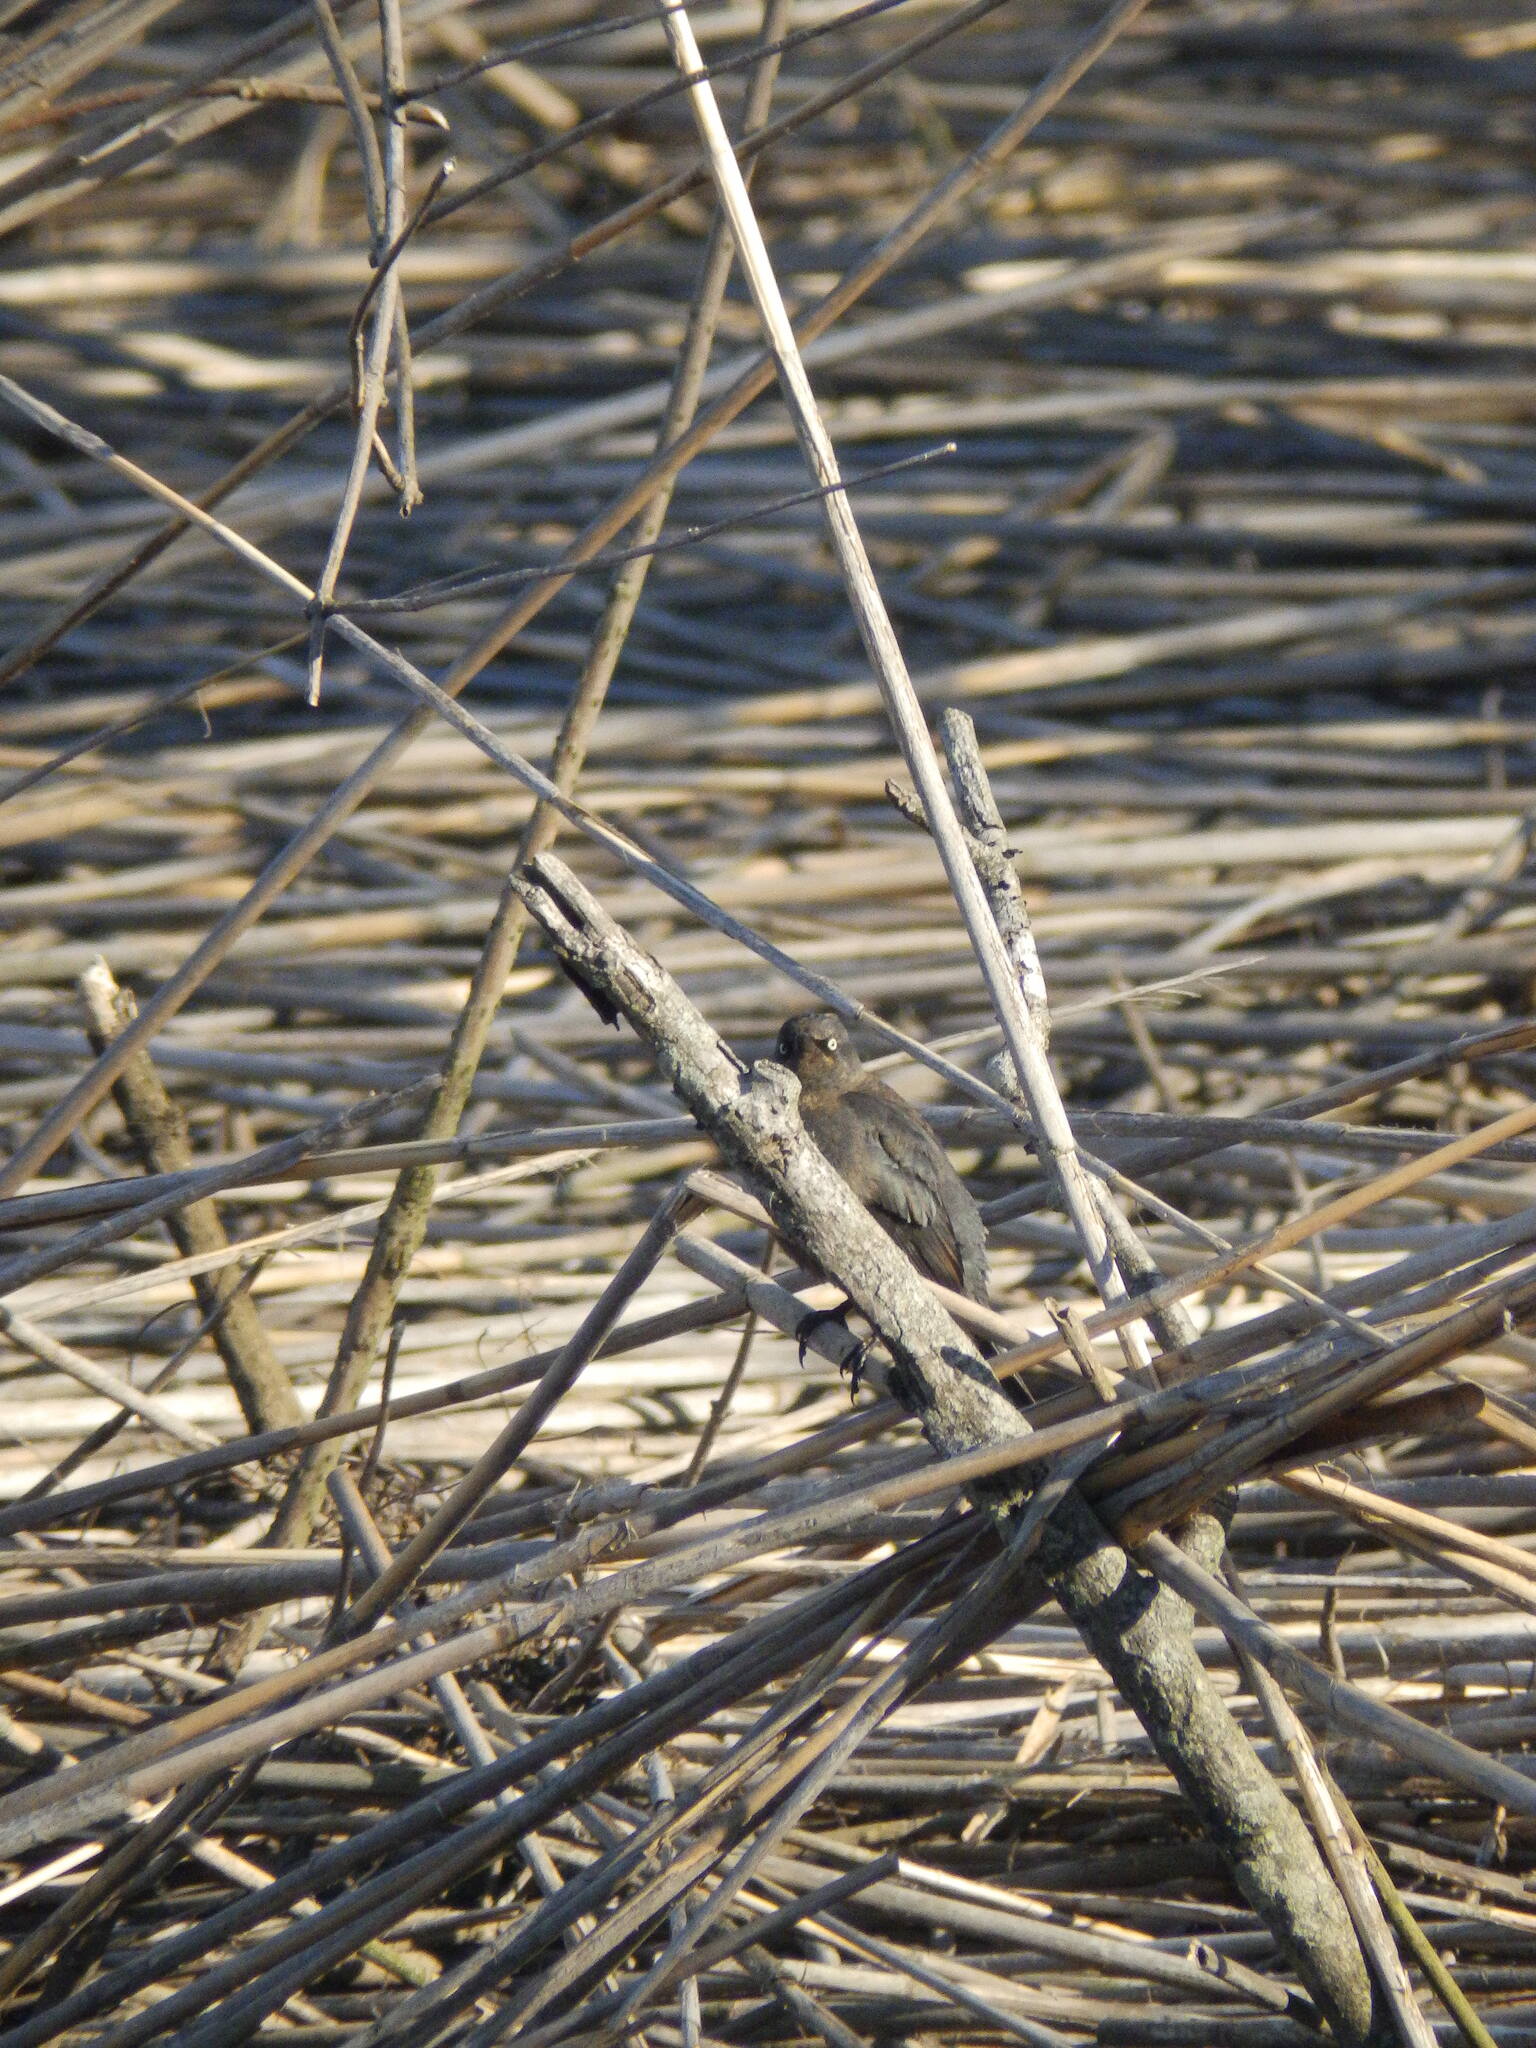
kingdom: Animalia
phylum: Chordata
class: Aves
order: Passeriformes
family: Icteridae
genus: Euphagus
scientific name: Euphagus carolinus
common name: Rusty blackbird
